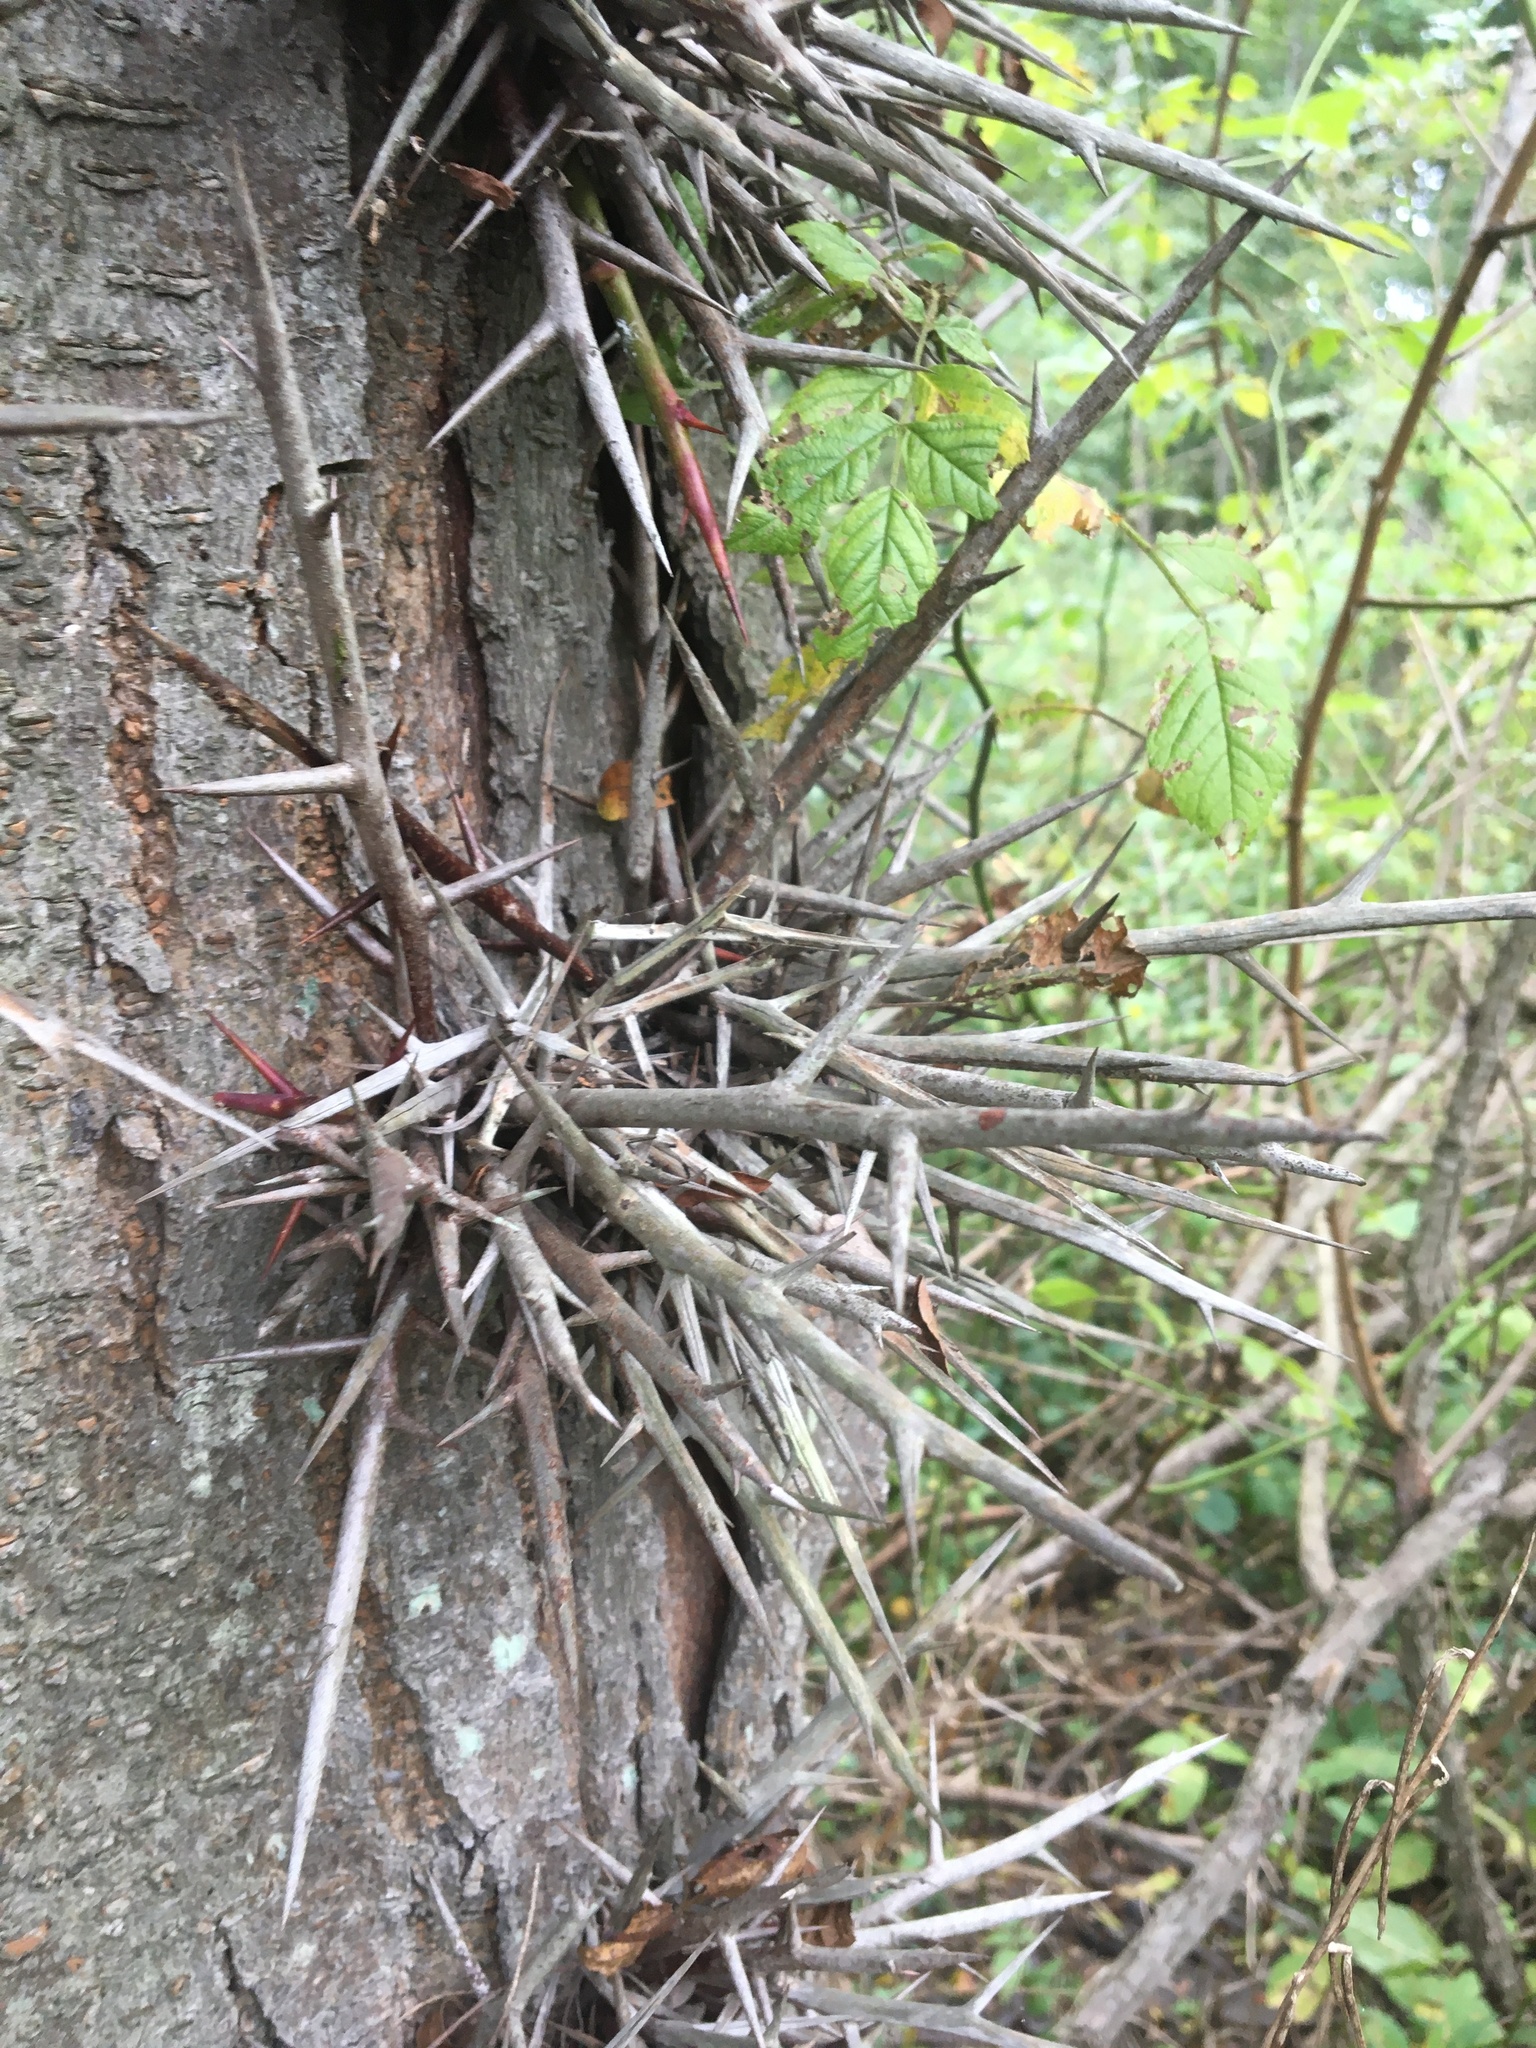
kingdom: Plantae
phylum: Tracheophyta
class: Magnoliopsida
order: Fabales
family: Fabaceae
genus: Gleditsia
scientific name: Gleditsia triacanthos
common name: Common honeylocust
